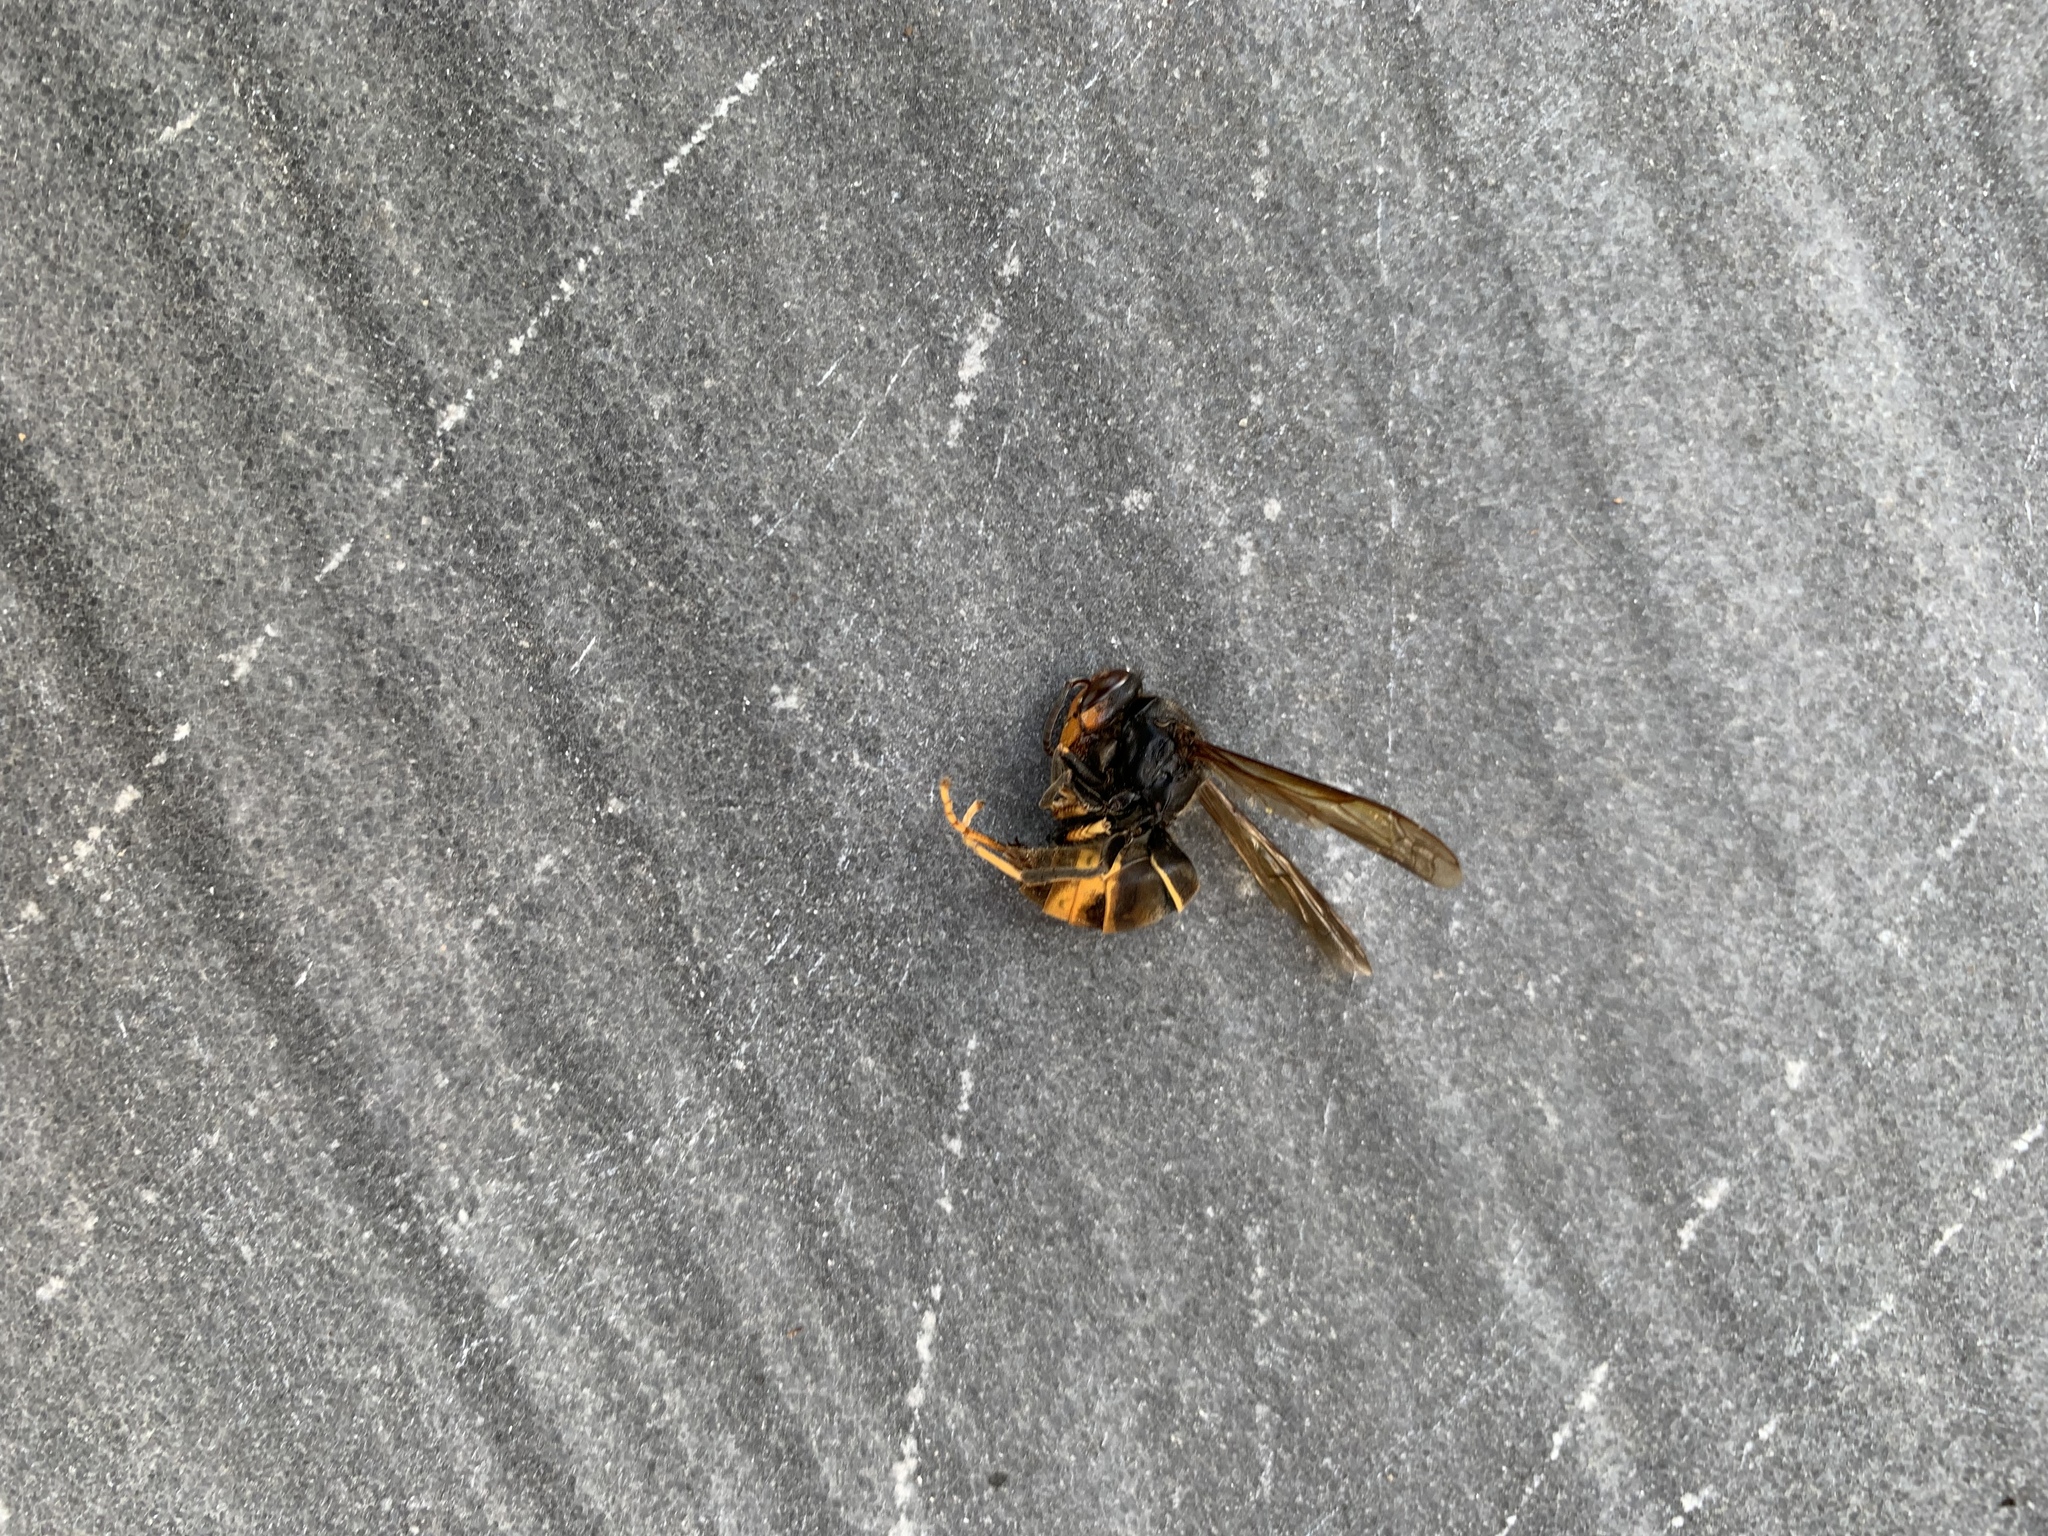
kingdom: Animalia
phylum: Arthropoda
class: Insecta
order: Hymenoptera
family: Vespidae
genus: Vespa
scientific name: Vespa velutina
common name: Asian hornet
